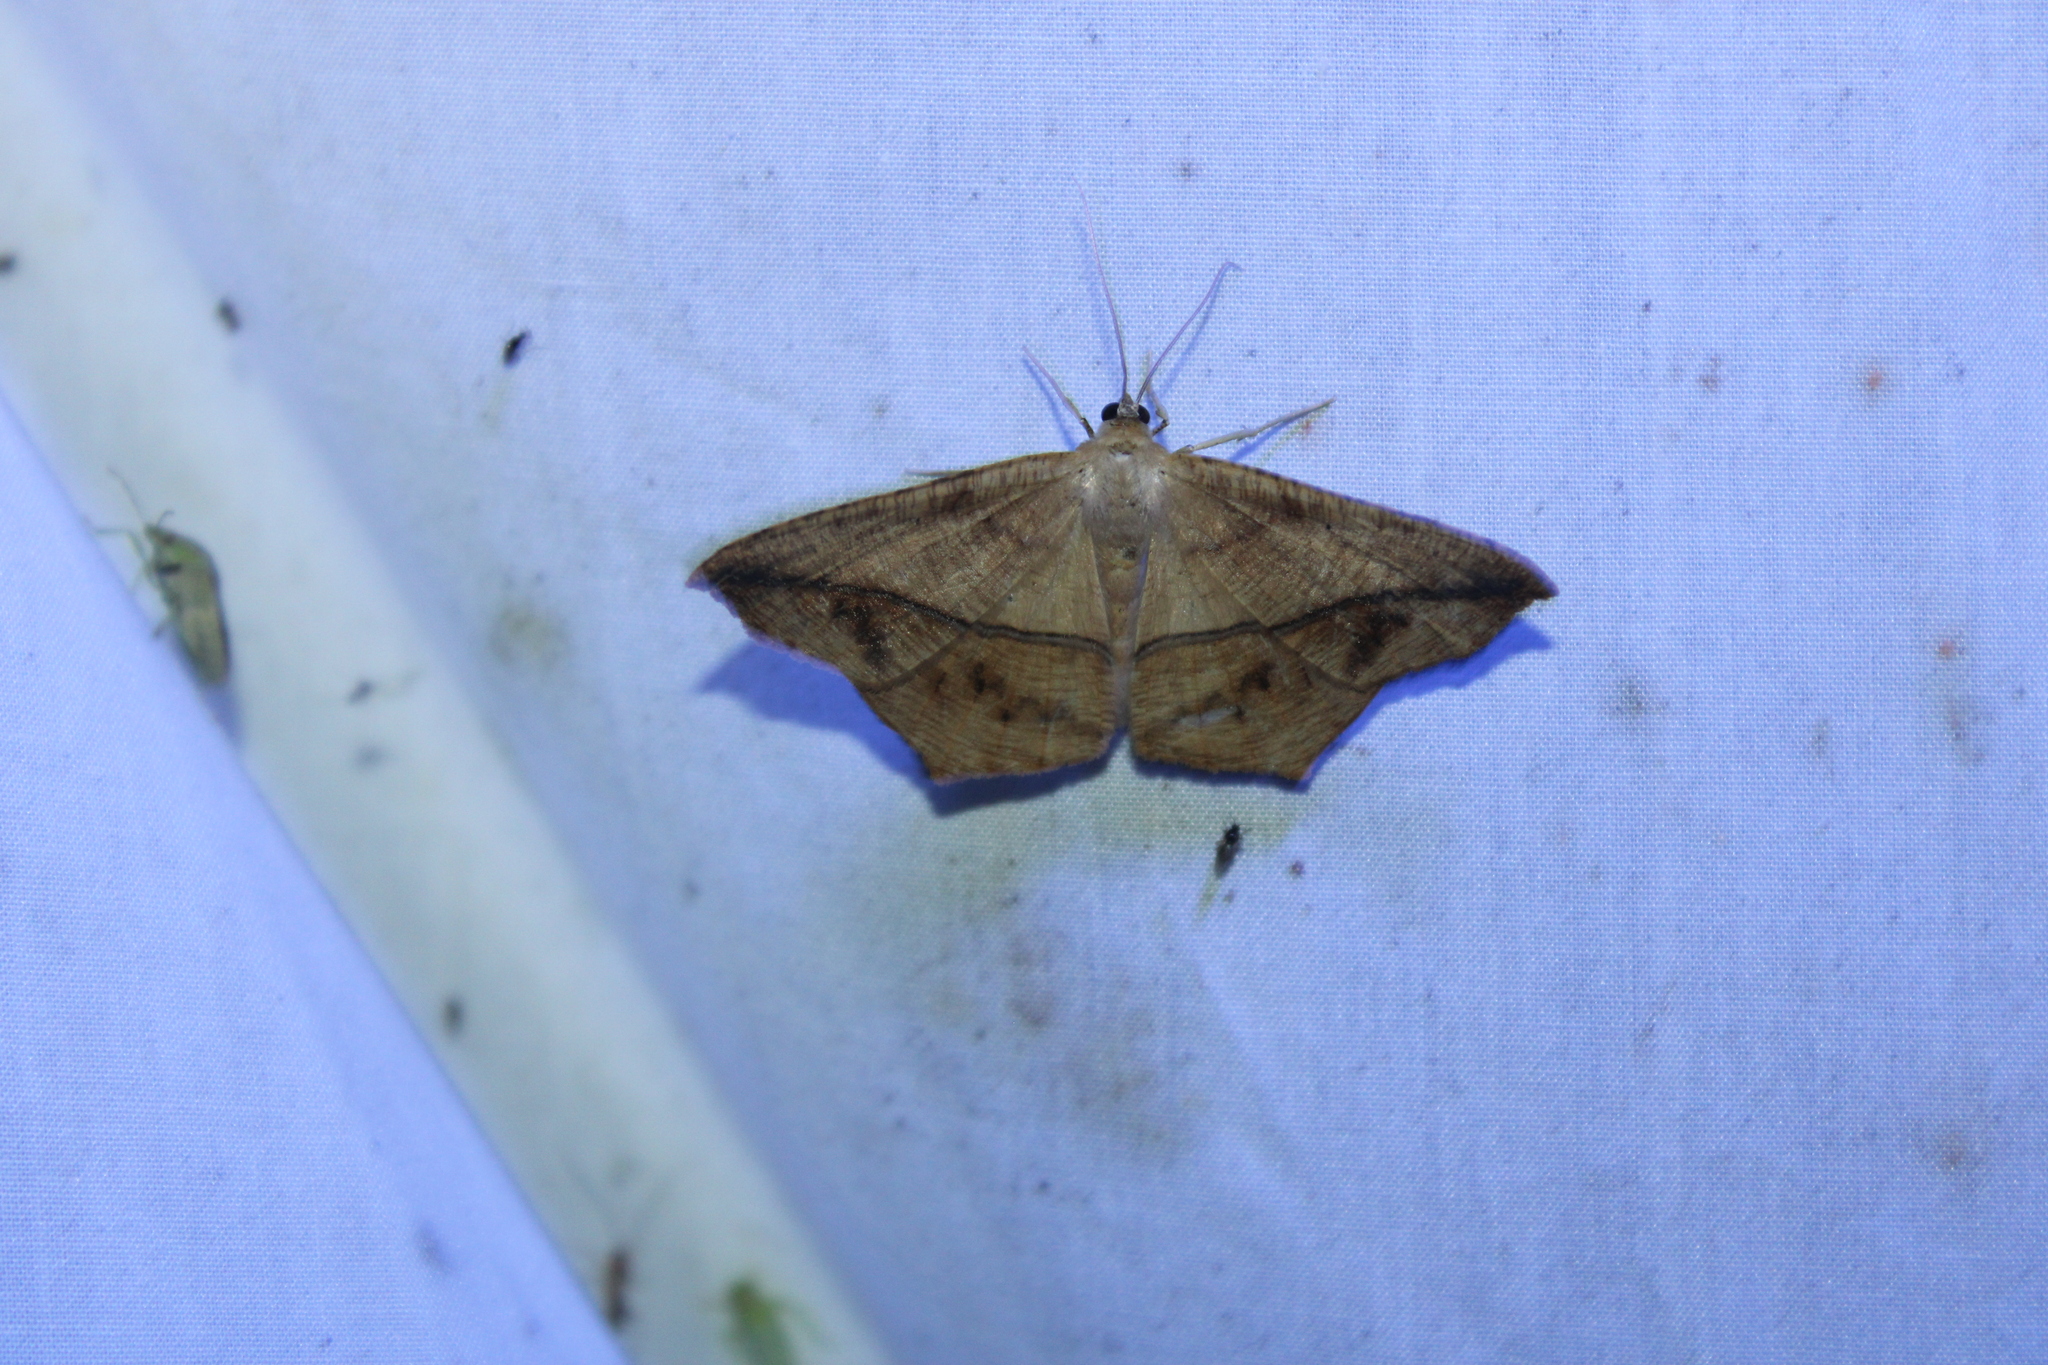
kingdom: Animalia
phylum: Arthropoda
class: Insecta
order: Lepidoptera
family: Geometridae
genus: Prochoerodes
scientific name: Prochoerodes lineola
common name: Large maple spanworm
